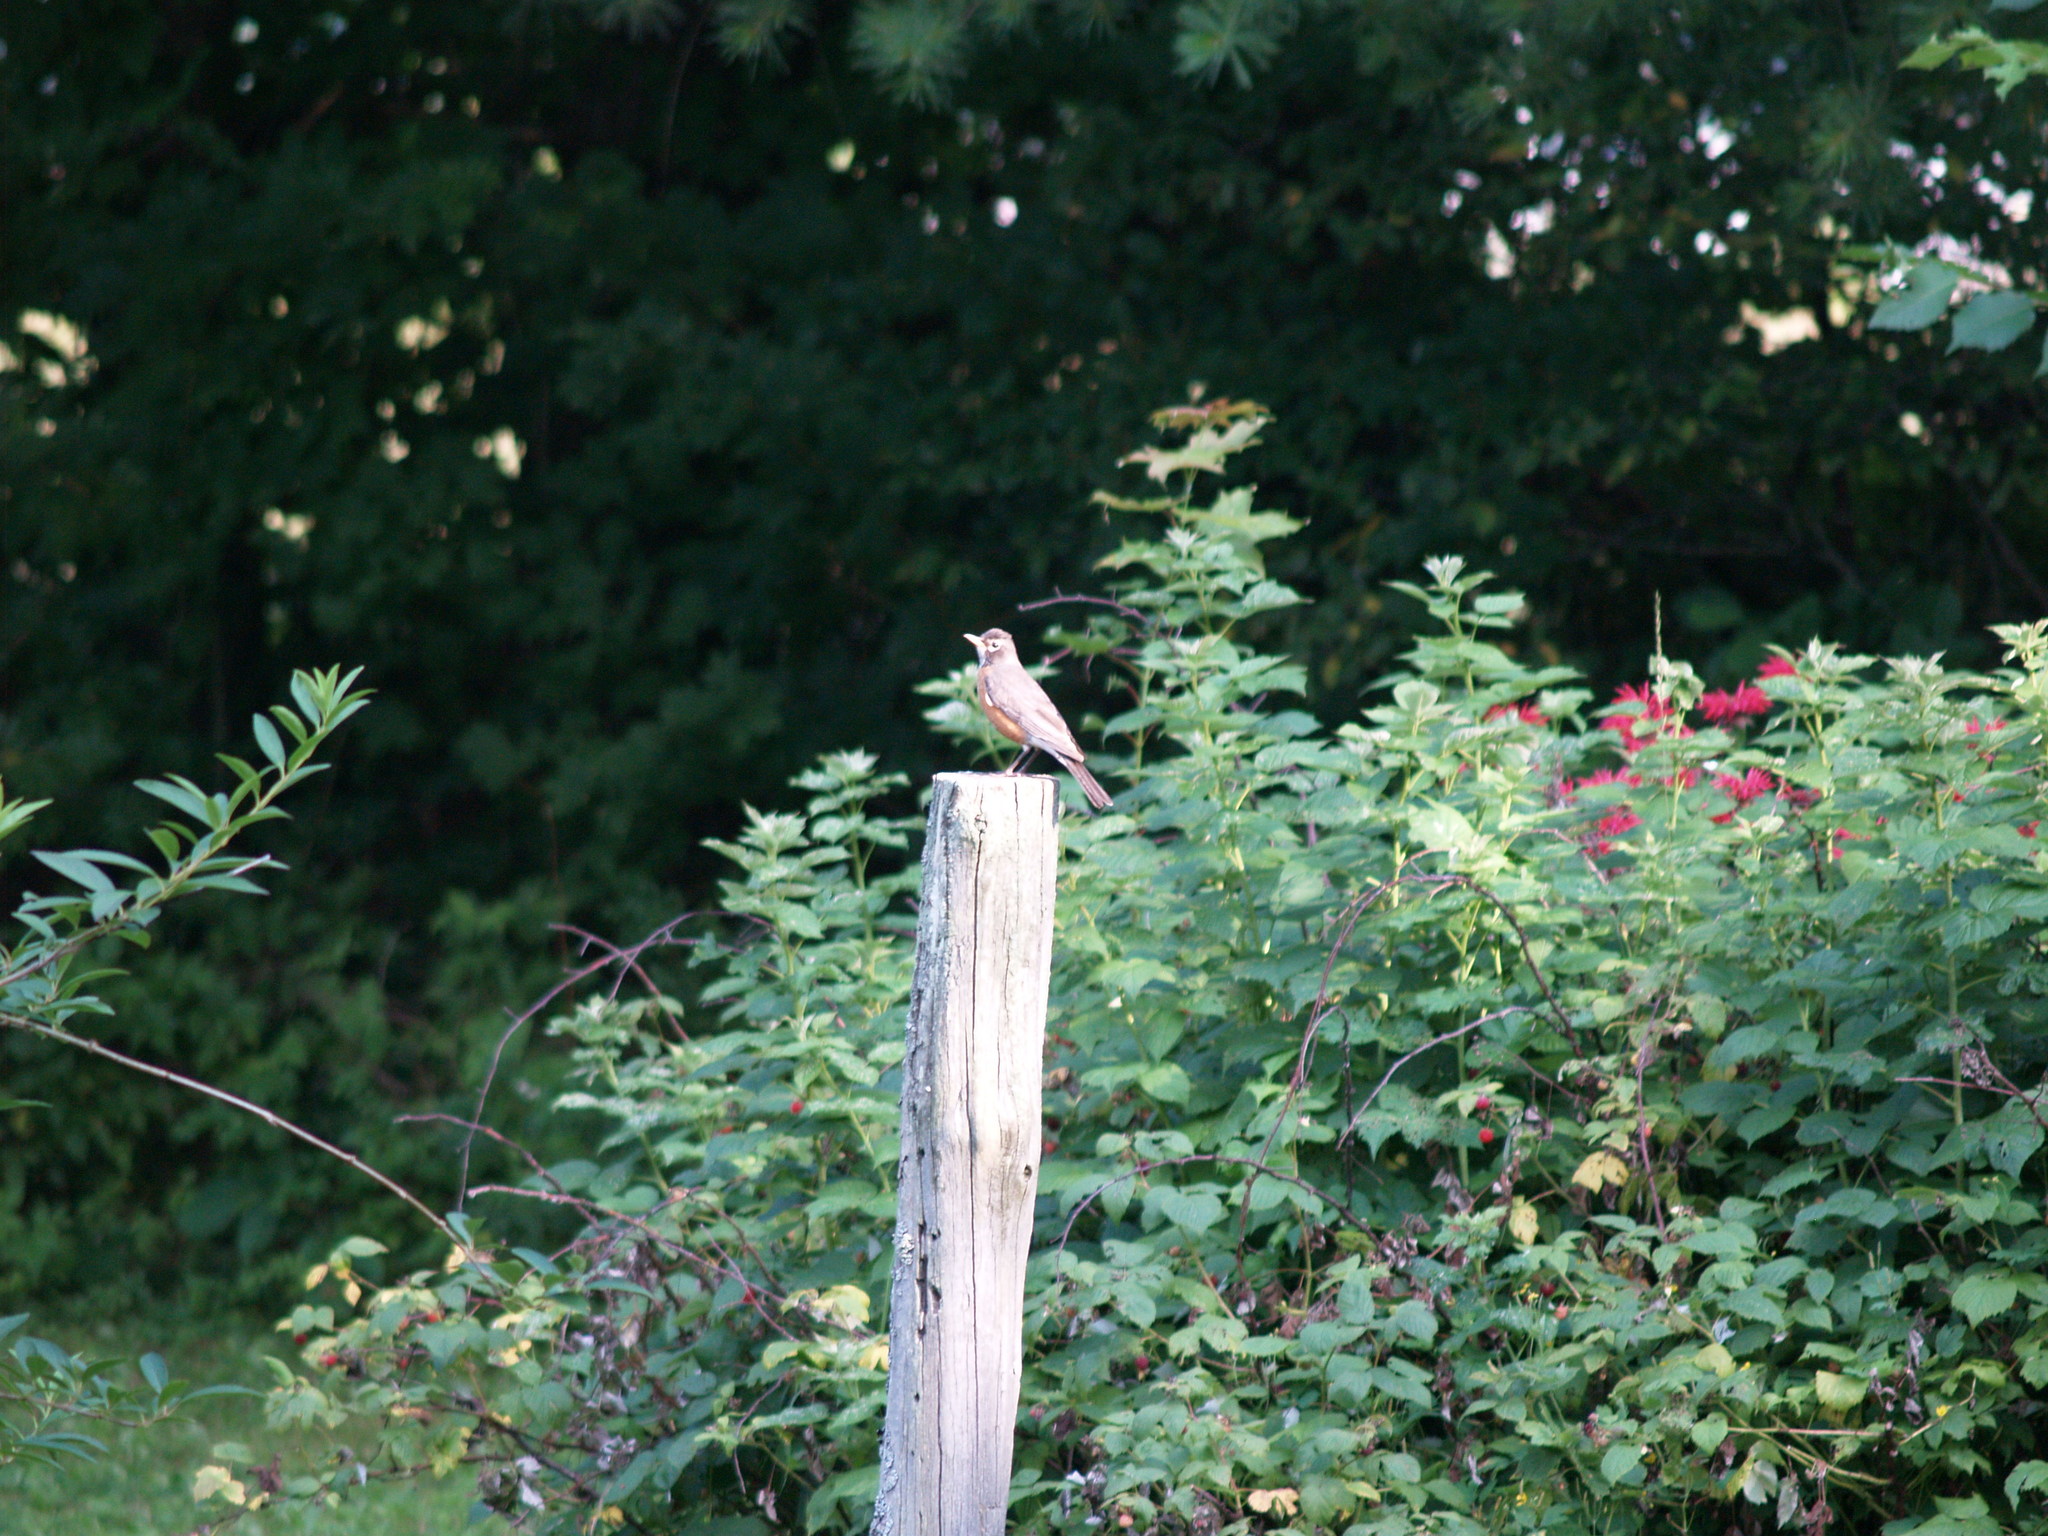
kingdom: Animalia
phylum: Chordata
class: Aves
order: Passeriformes
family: Turdidae
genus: Turdus
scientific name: Turdus migratorius
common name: American robin
